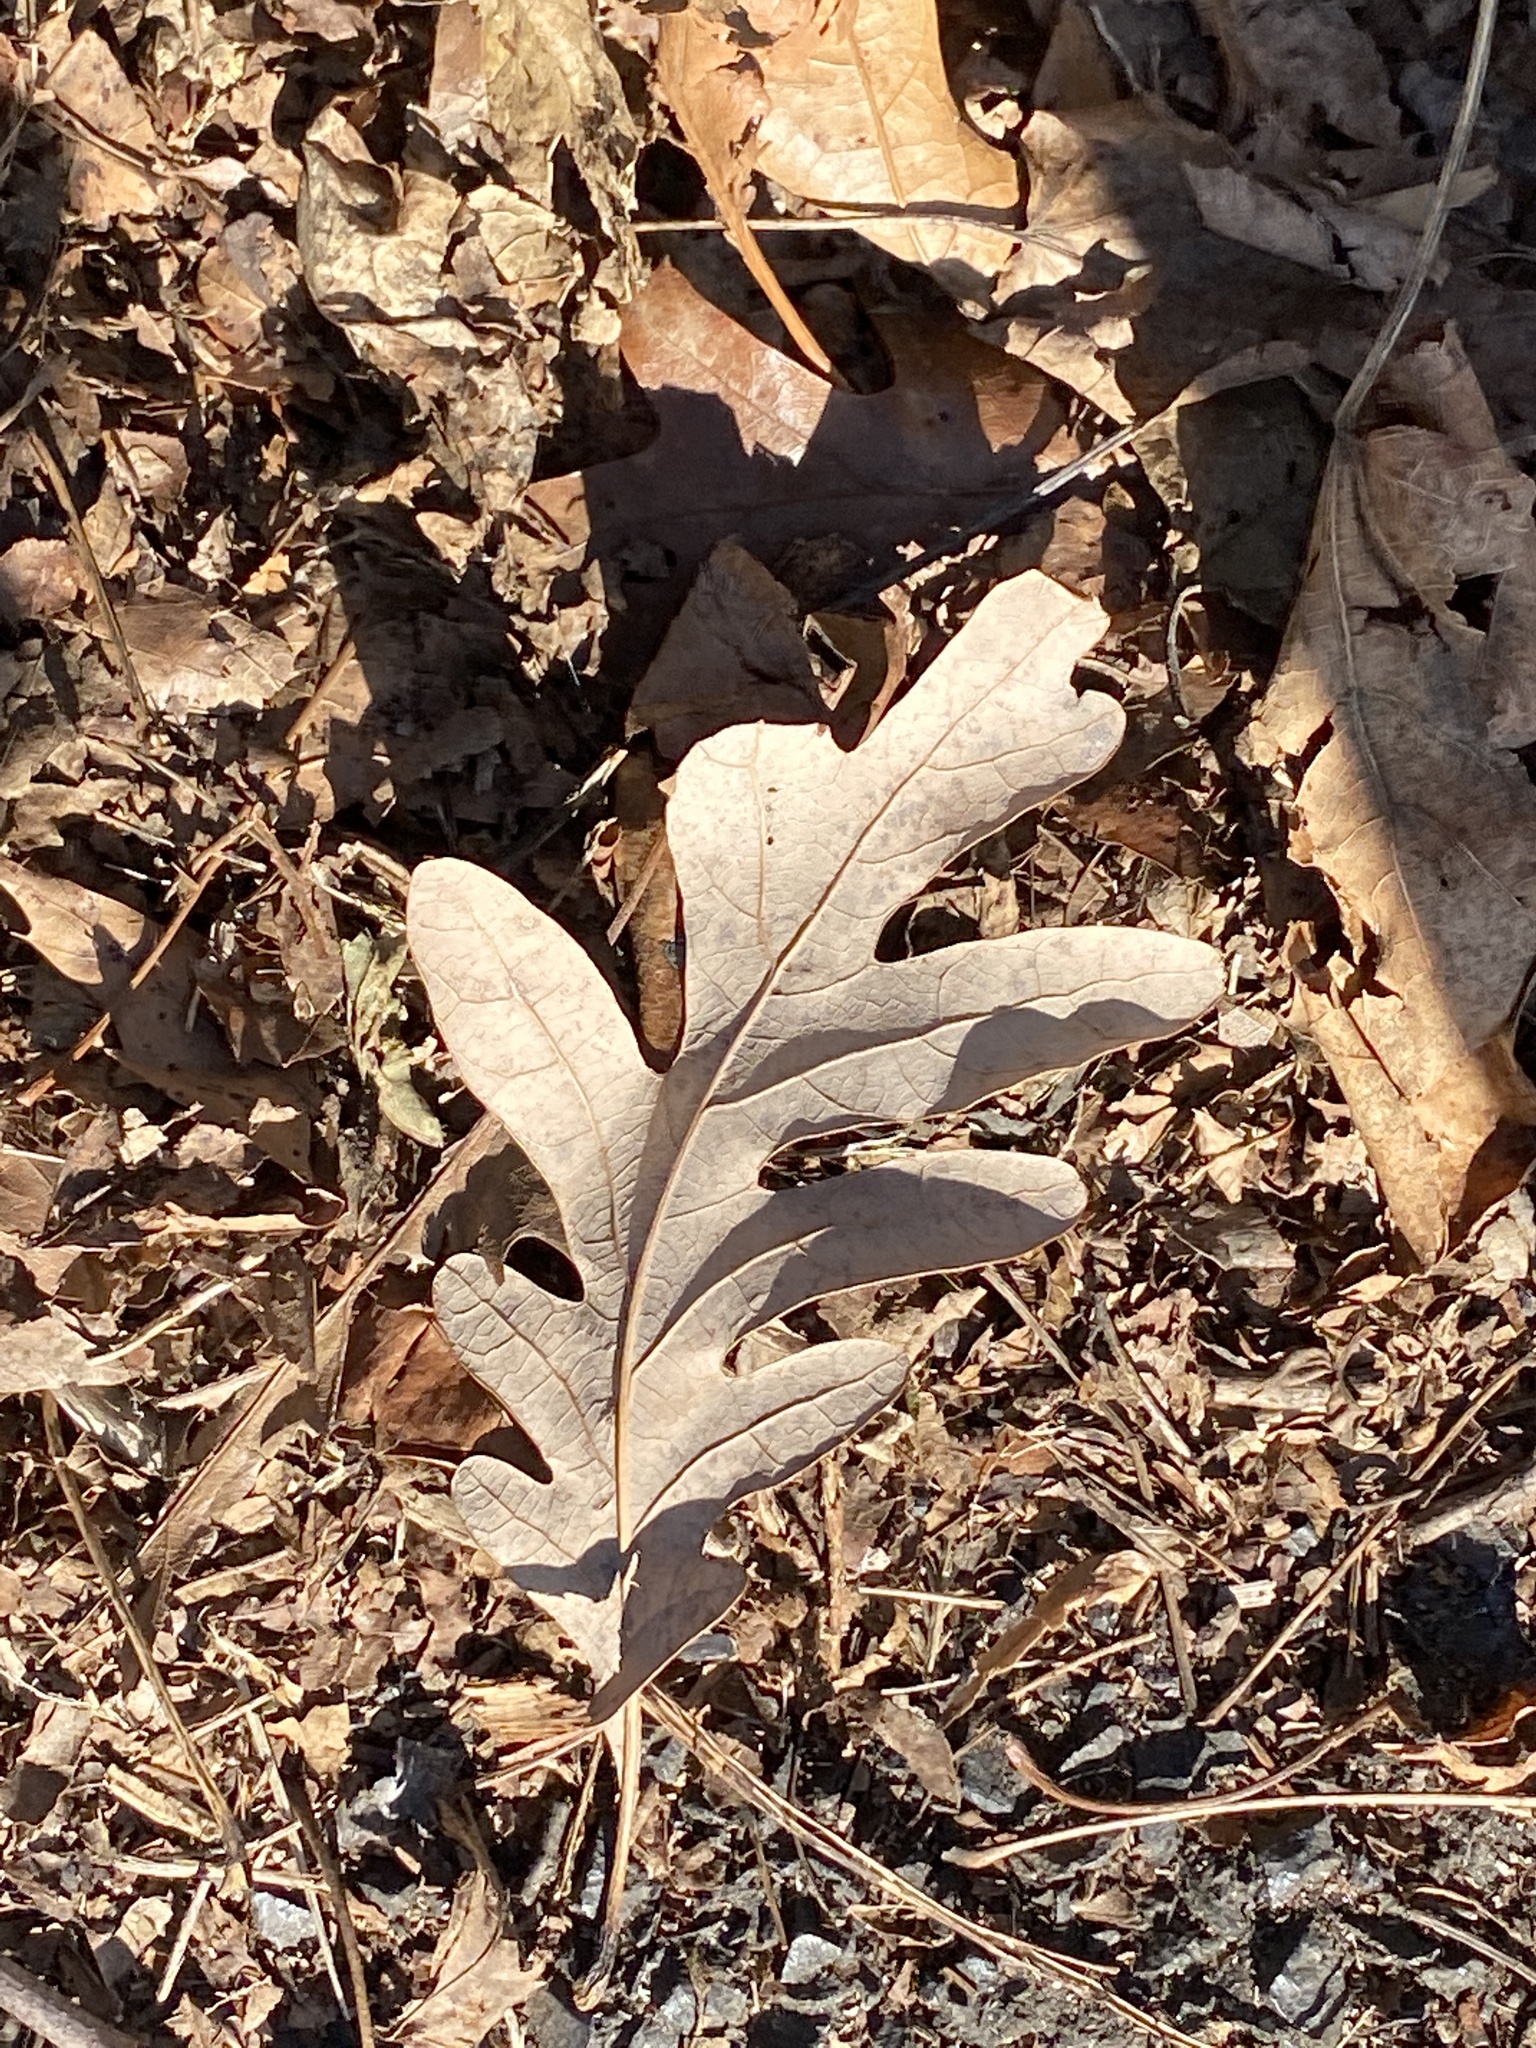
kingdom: Plantae
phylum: Tracheophyta
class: Magnoliopsida
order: Fagales
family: Fagaceae
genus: Quercus
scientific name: Quercus alba
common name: White oak
